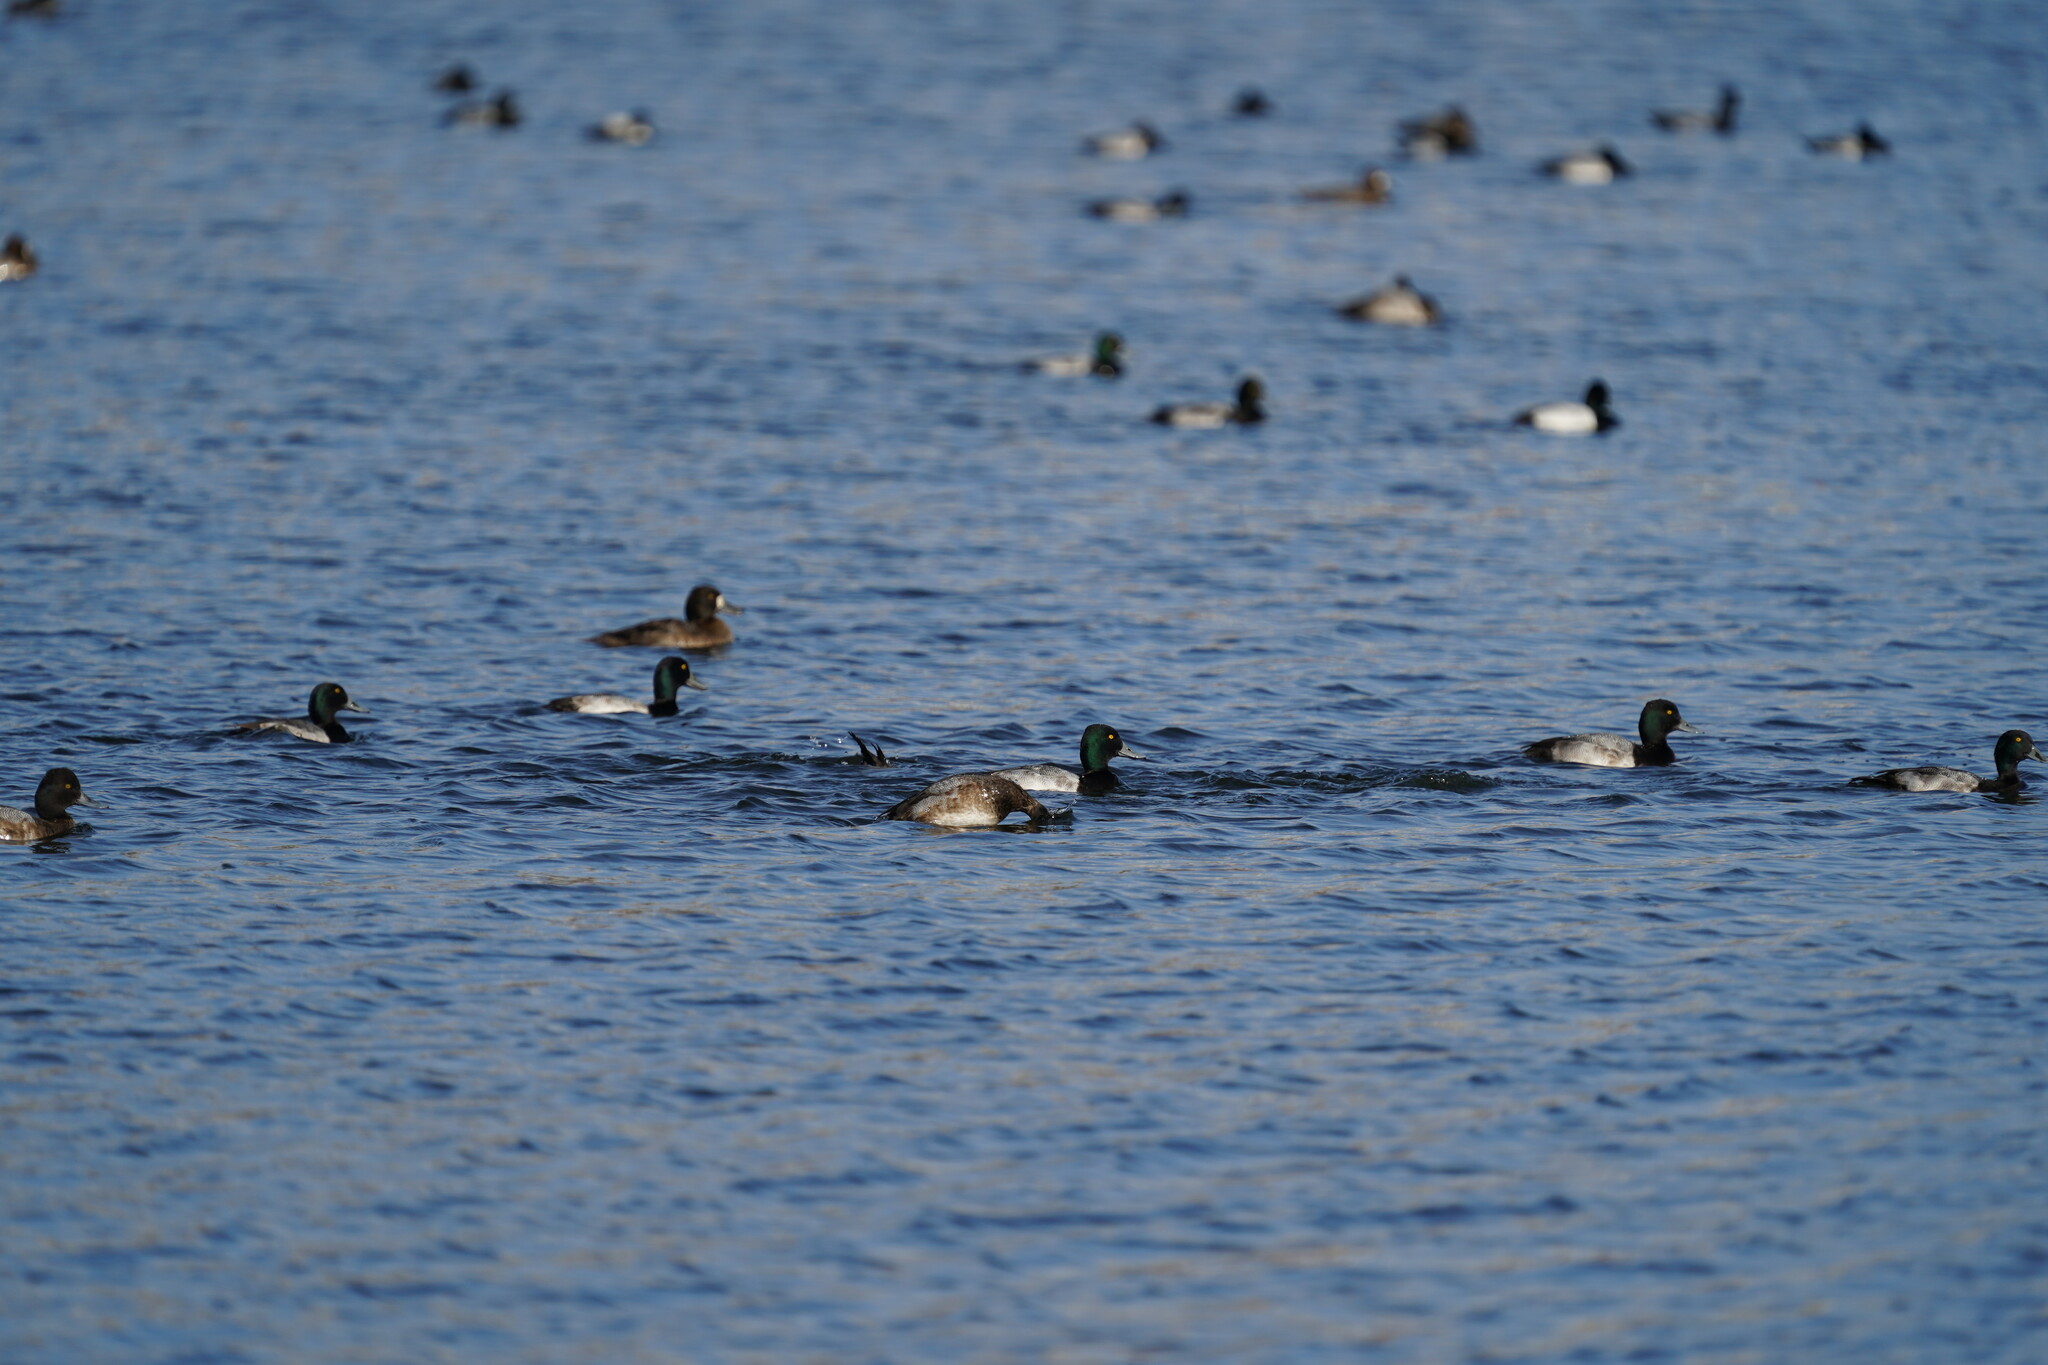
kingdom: Animalia
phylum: Chordata
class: Aves
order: Anseriformes
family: Anatidae
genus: Aythya
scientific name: Aythya marila
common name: Greater scaup
